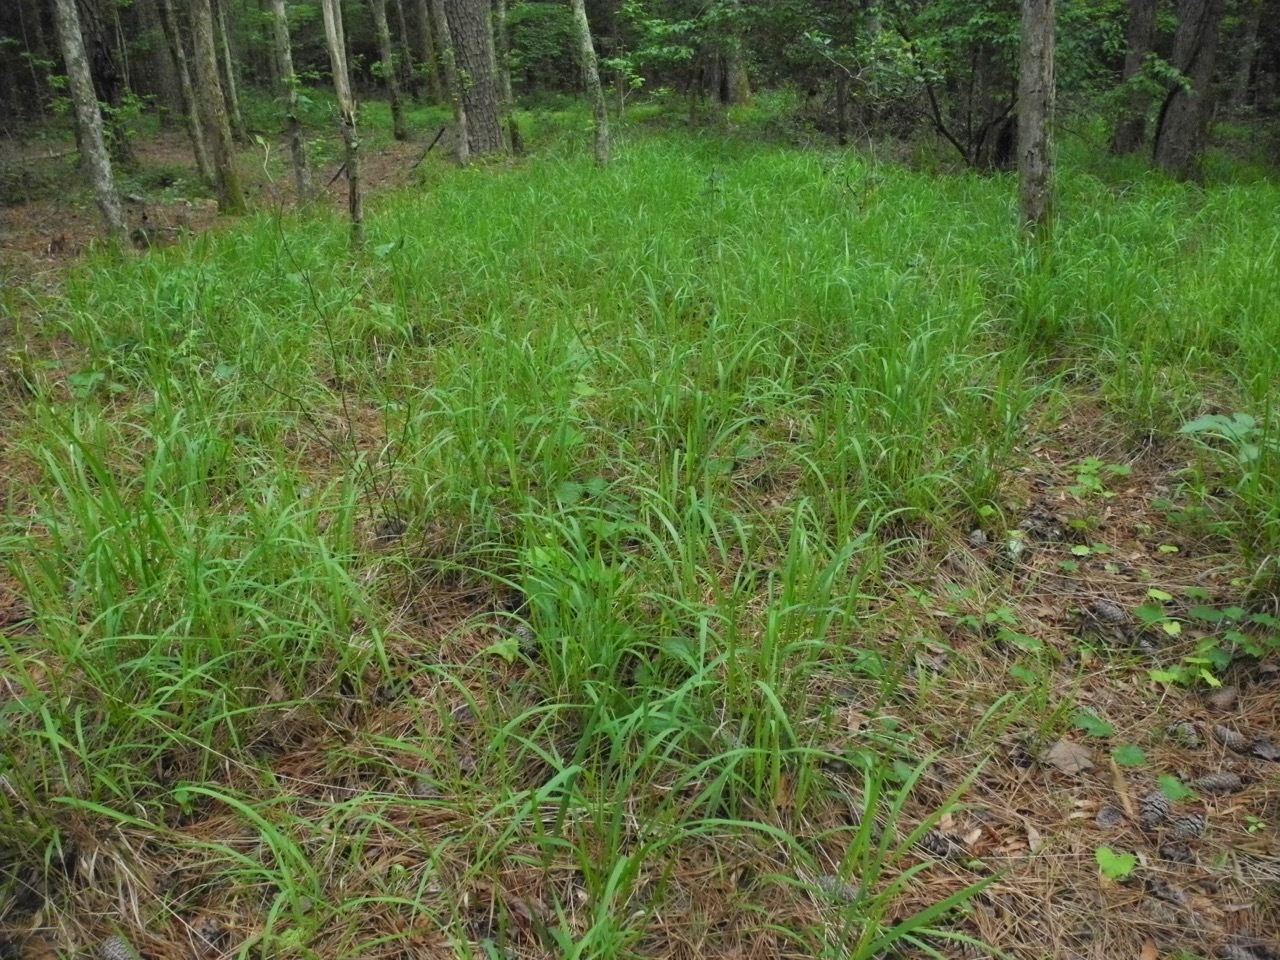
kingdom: Plantae
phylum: Tracheophyta
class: Liliopsida
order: Poales
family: Poaceae
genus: Chasmanthium
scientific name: Chasmanthium laxum
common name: Slender chasmanthium
